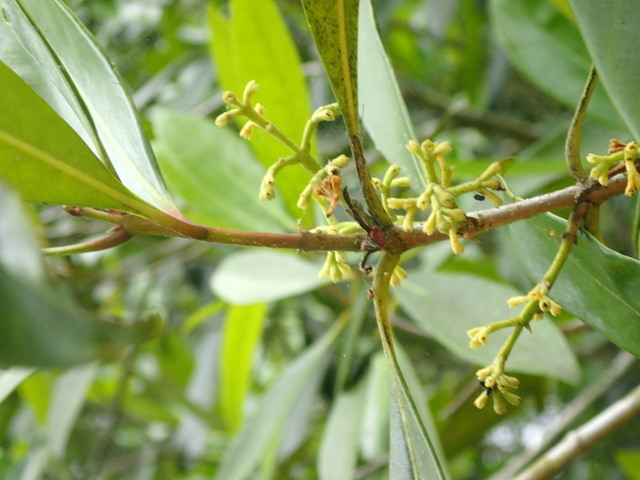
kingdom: Plantae
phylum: Tracheophyta
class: Magnoliopsida
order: Lamiales
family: Oleaceae
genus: Cartrema
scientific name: Cartrema americana
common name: Devilwood
